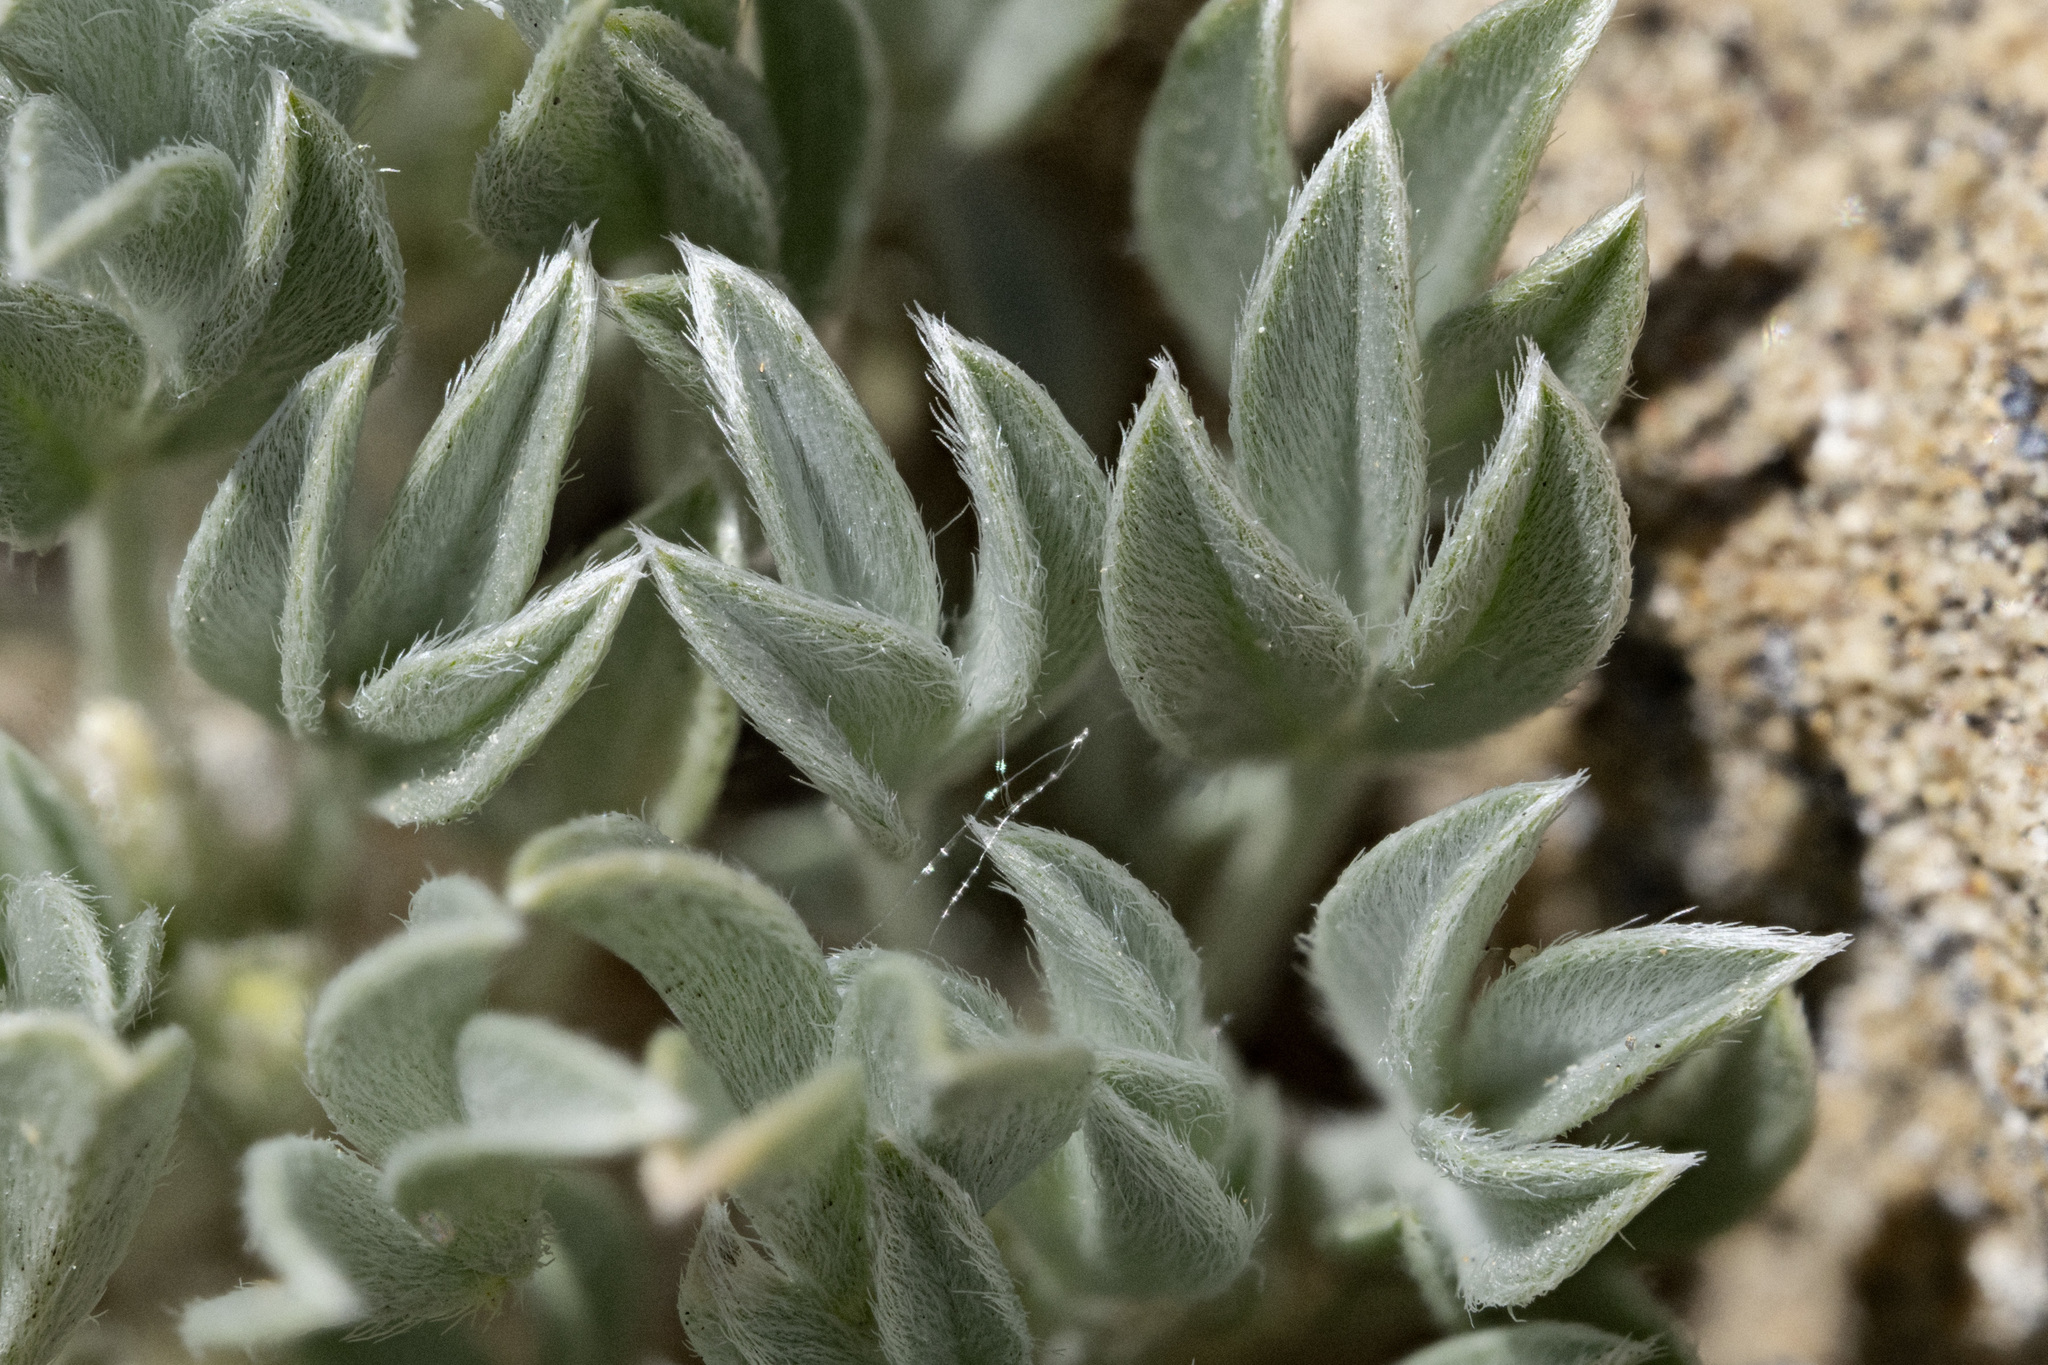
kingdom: Plantae
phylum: Tracheophyta
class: Magnoliopsida
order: Fabales
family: Fabaceae
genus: Astragalus
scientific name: Astragalus hyalinus
